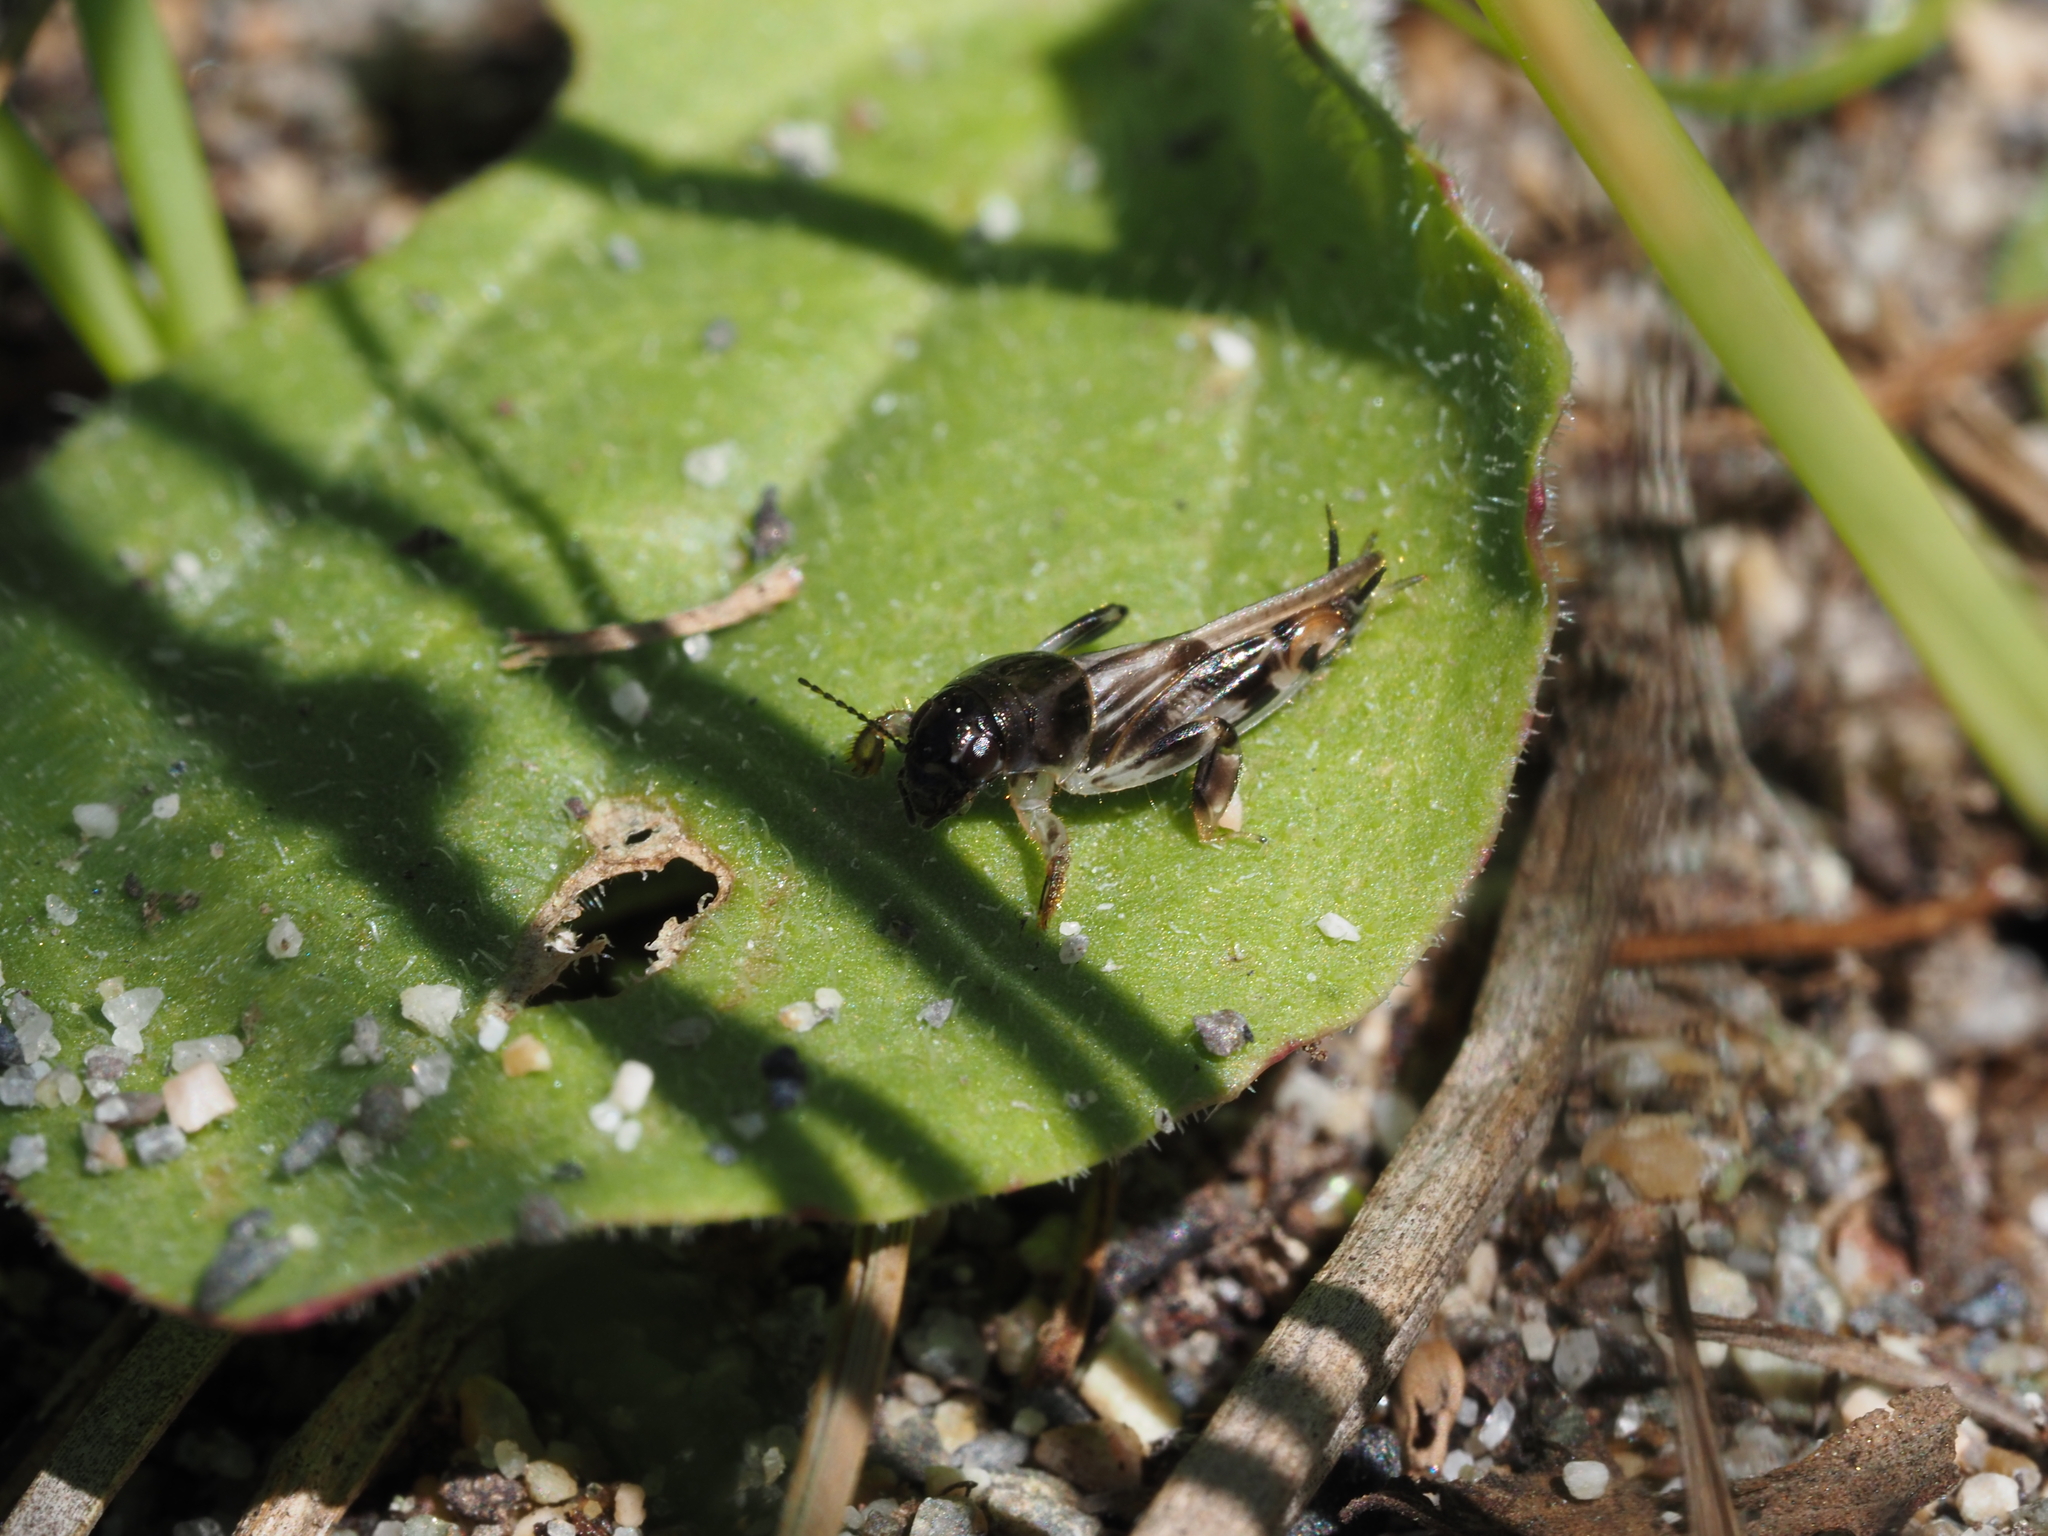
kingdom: Animalia
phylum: Arthropoda
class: Insecta
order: Orthoptera
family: Tridactylidae
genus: Neotridactylus
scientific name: Neotridactylus apicialis
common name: Larger pygmy locust
